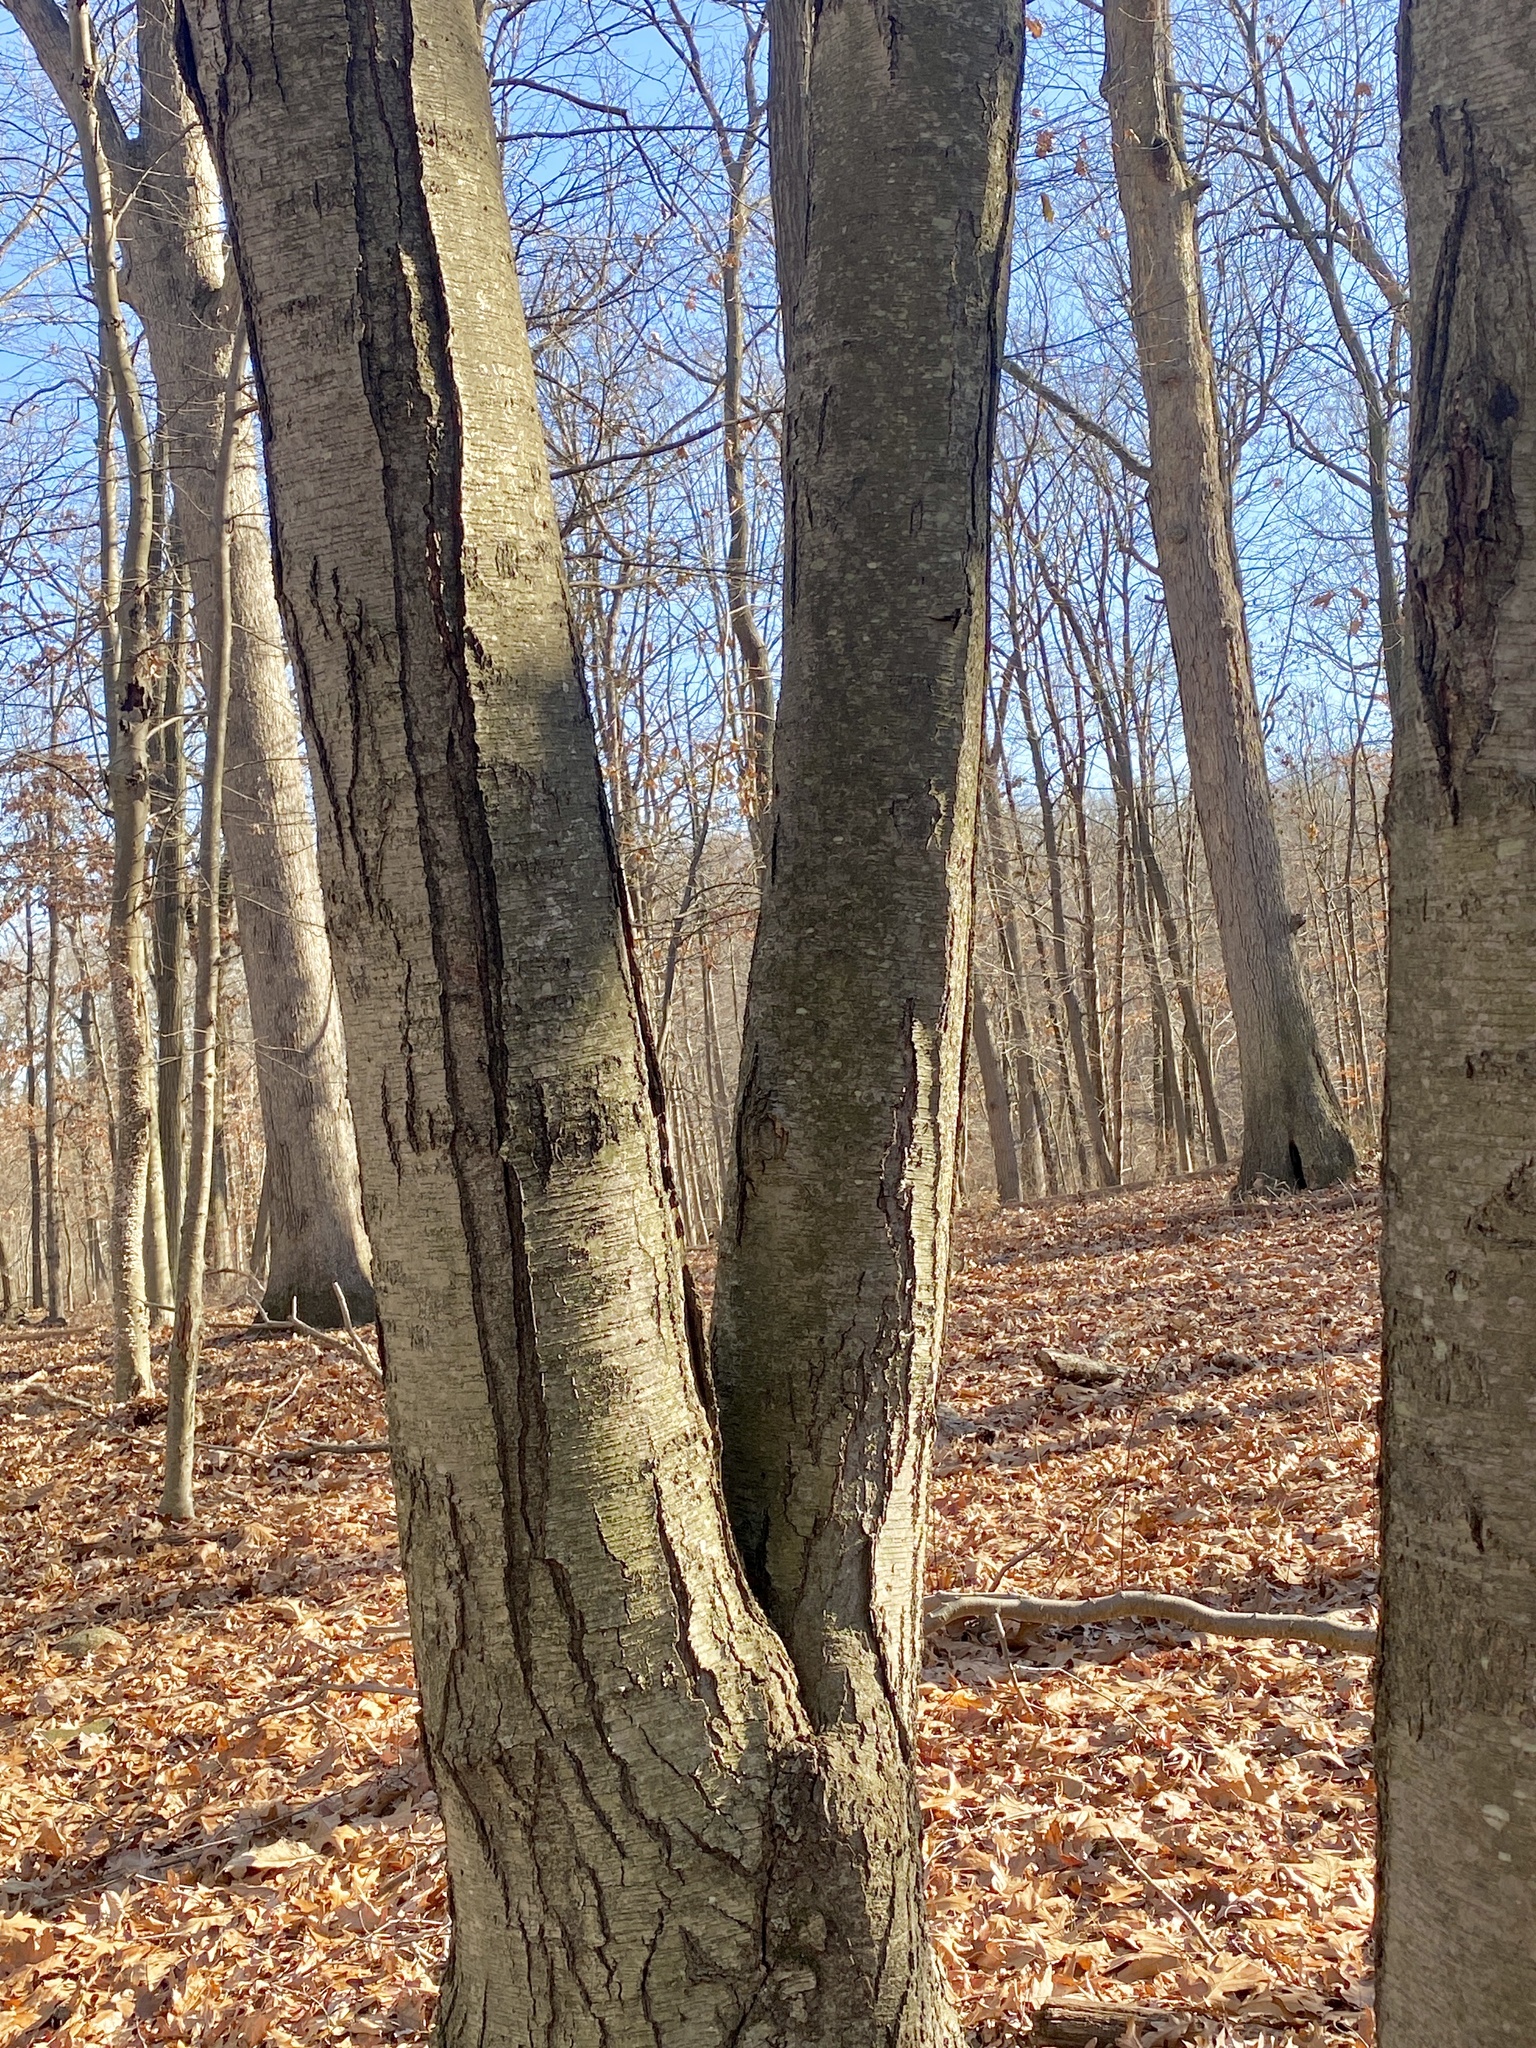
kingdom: Plantae
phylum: Tracheophyta
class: Magnoliopsida
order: Fagales
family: Betulaceae
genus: Betula
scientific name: Betula lenta
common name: Black birch
